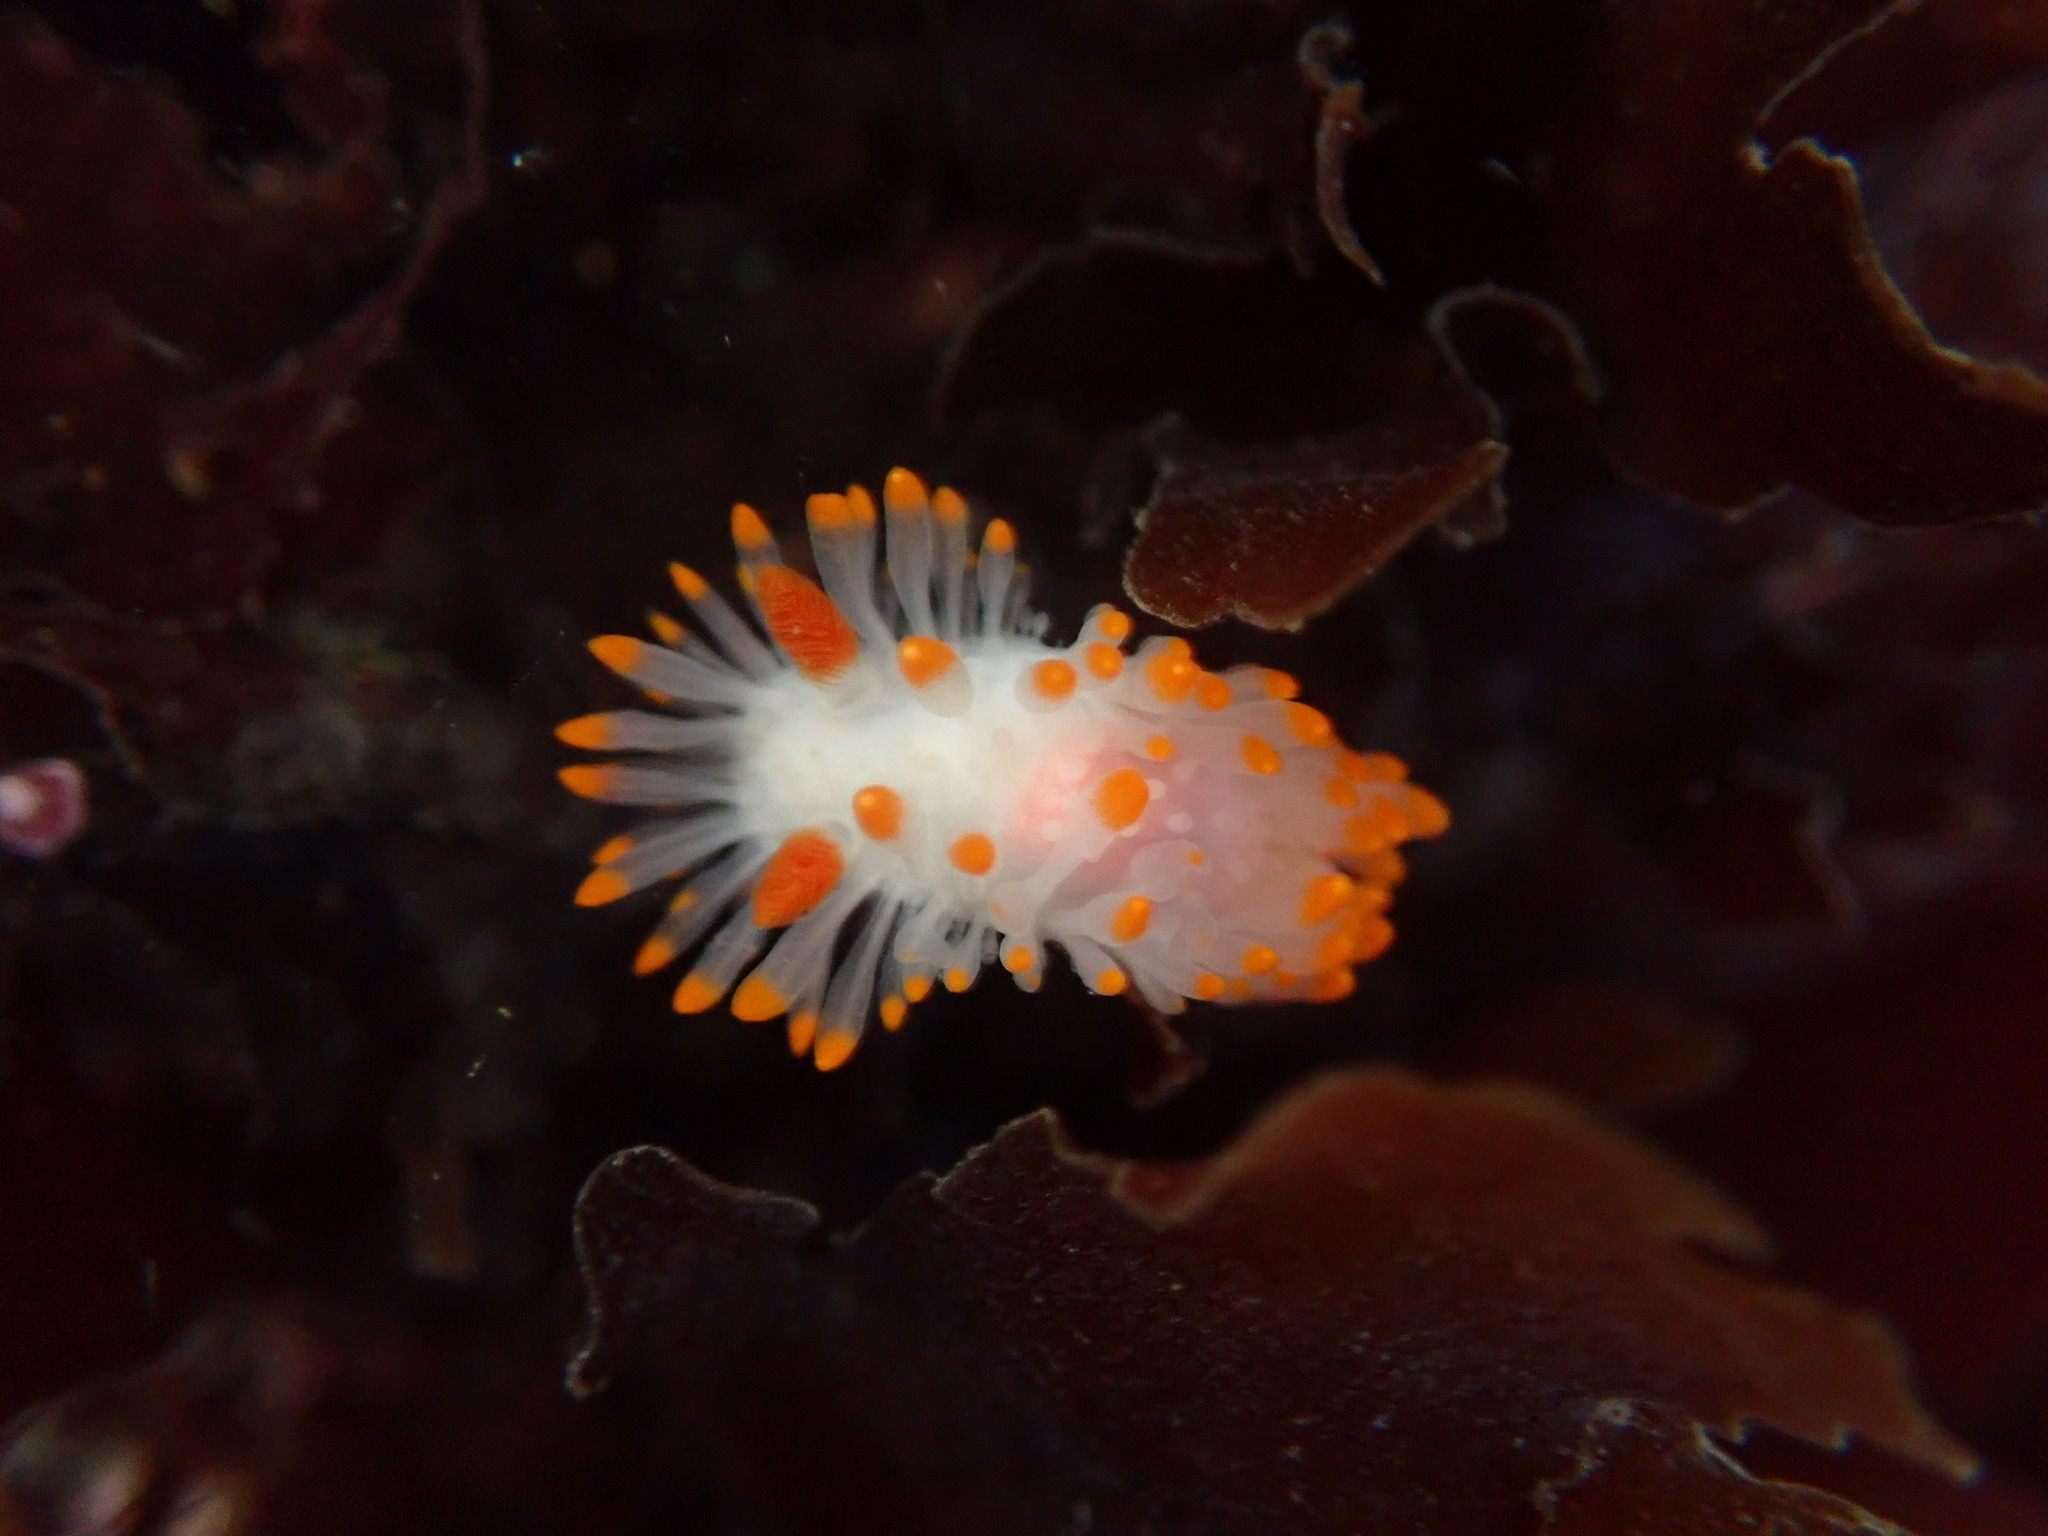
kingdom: Animalia
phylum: Mollusca
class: Gastropoda
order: Nudibranchia
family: Polyceridae
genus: Limacia
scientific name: Limacia cockerelli
